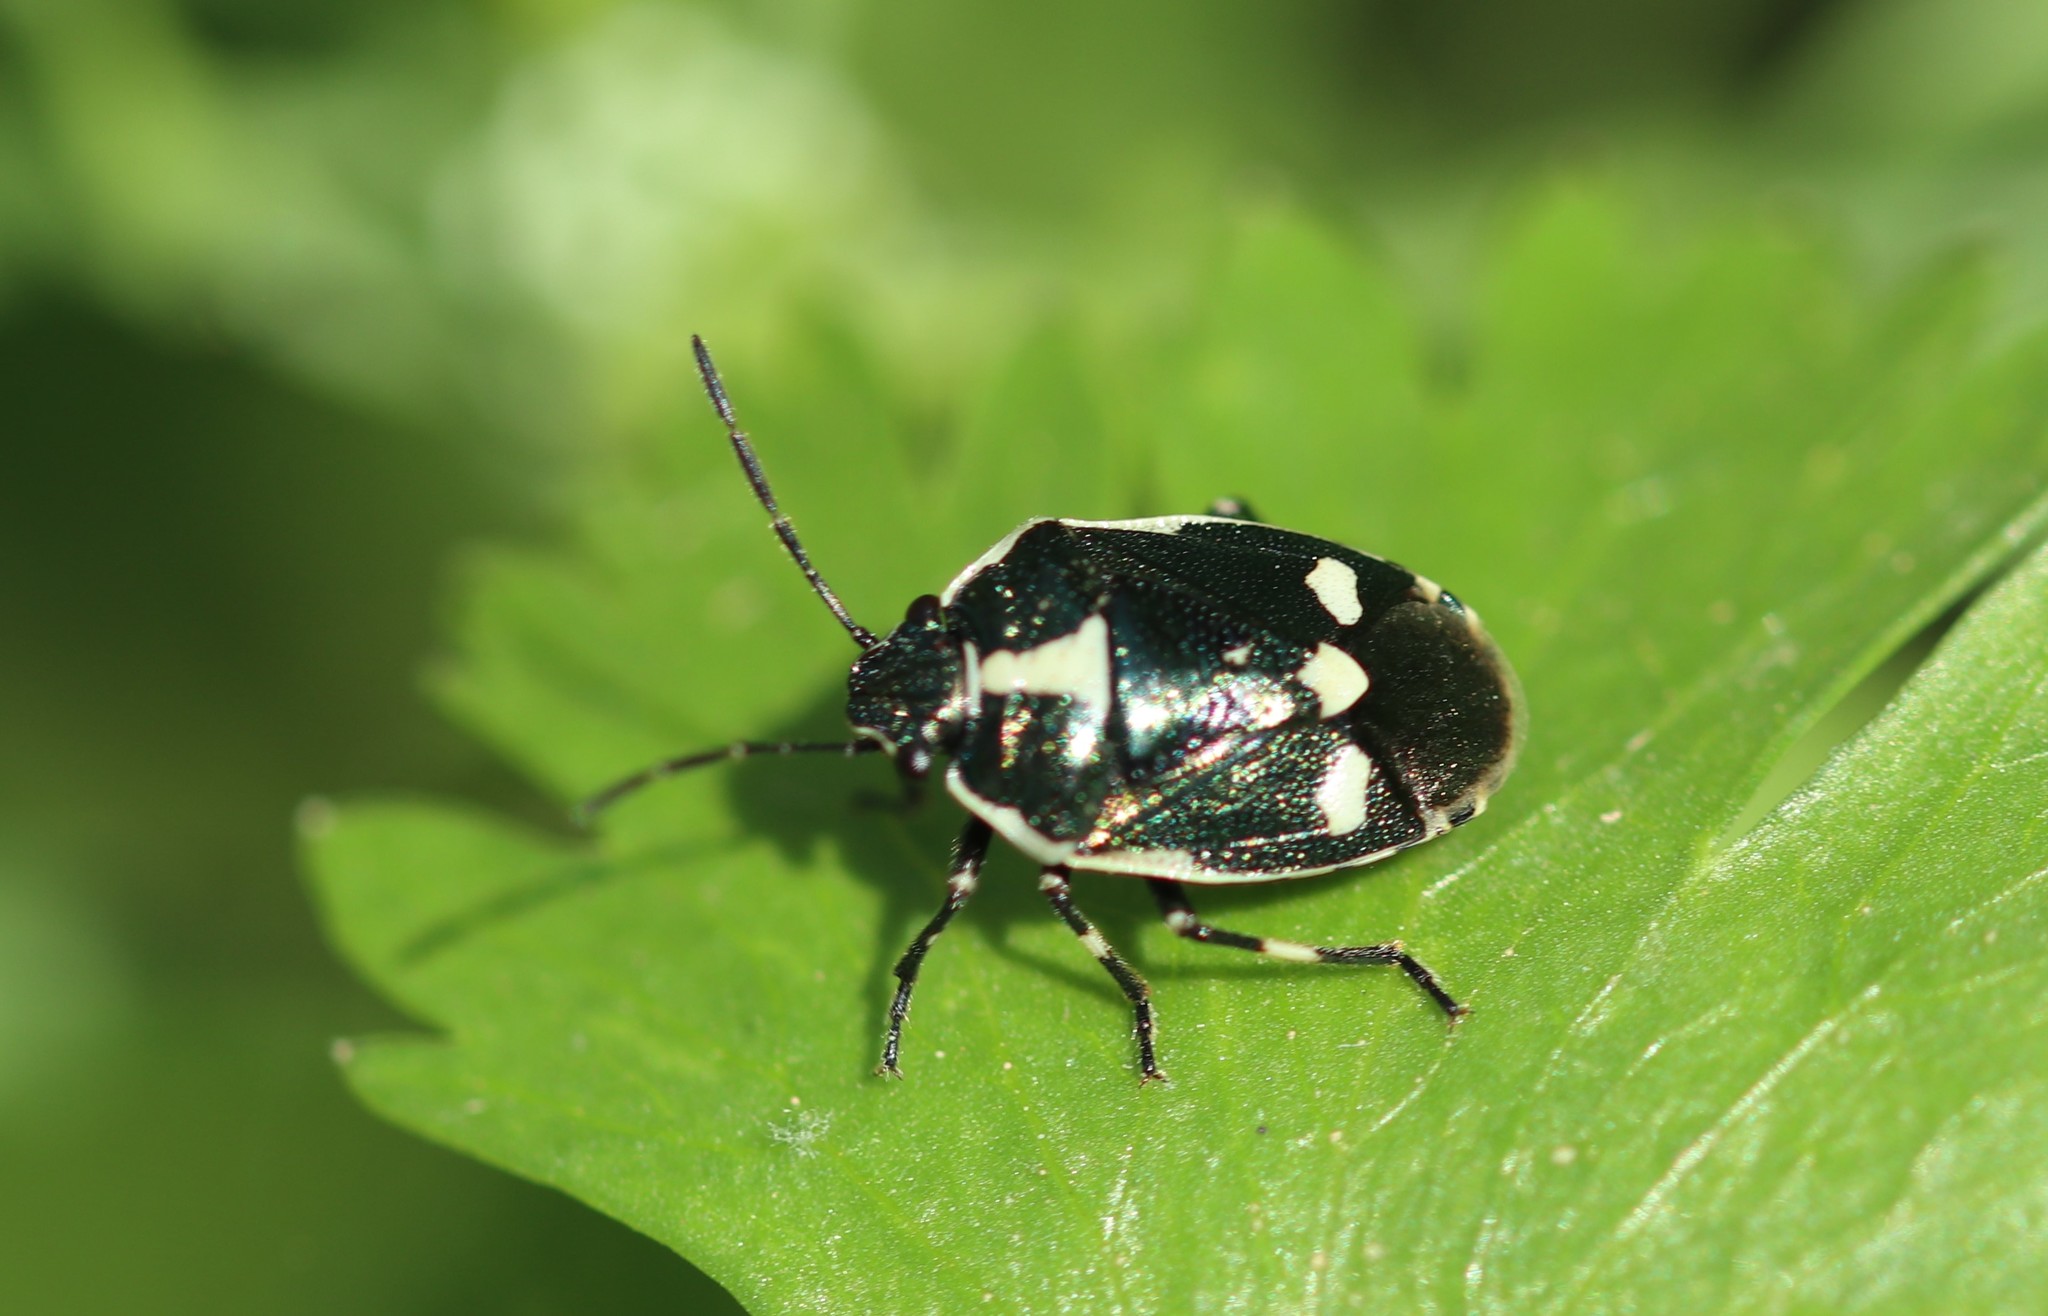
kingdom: Animalia
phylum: Arthropoda
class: Insecta
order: Hemiptera
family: Pentatomidae
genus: Eurydema
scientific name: Eurydema oleracea
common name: Cabbage bug
